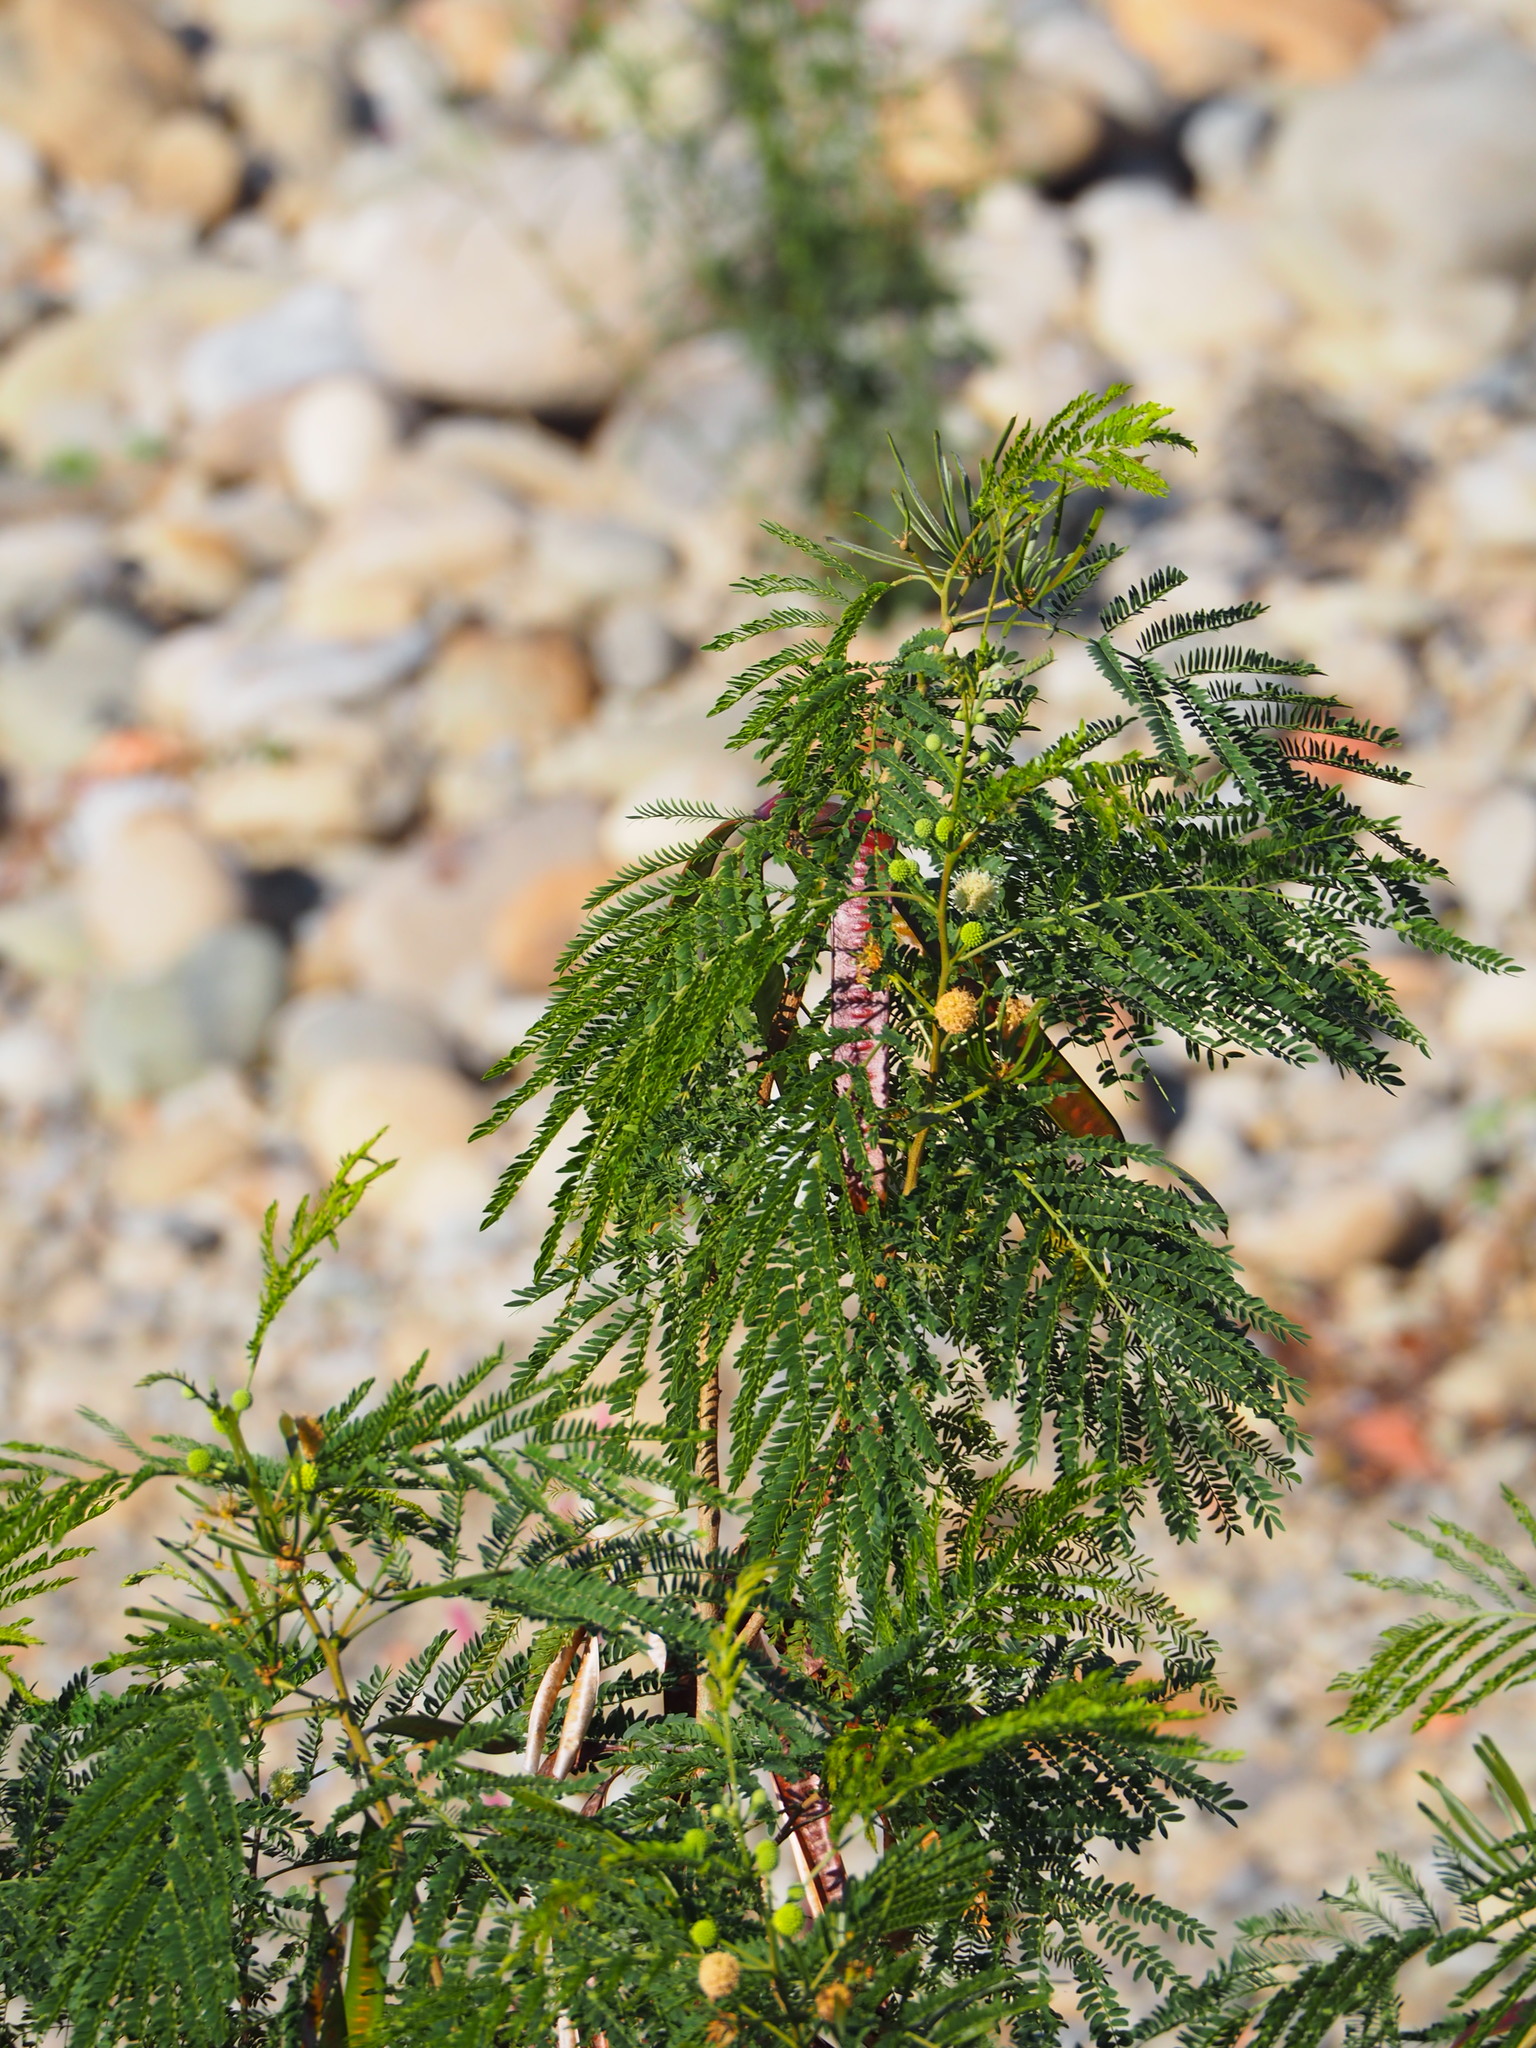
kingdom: Plantae
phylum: Tracheophyta
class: Magnoliopsida
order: Fabales
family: Fabaceae
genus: Leucaena
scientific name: Leucaena leucocephala
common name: White leadtree
